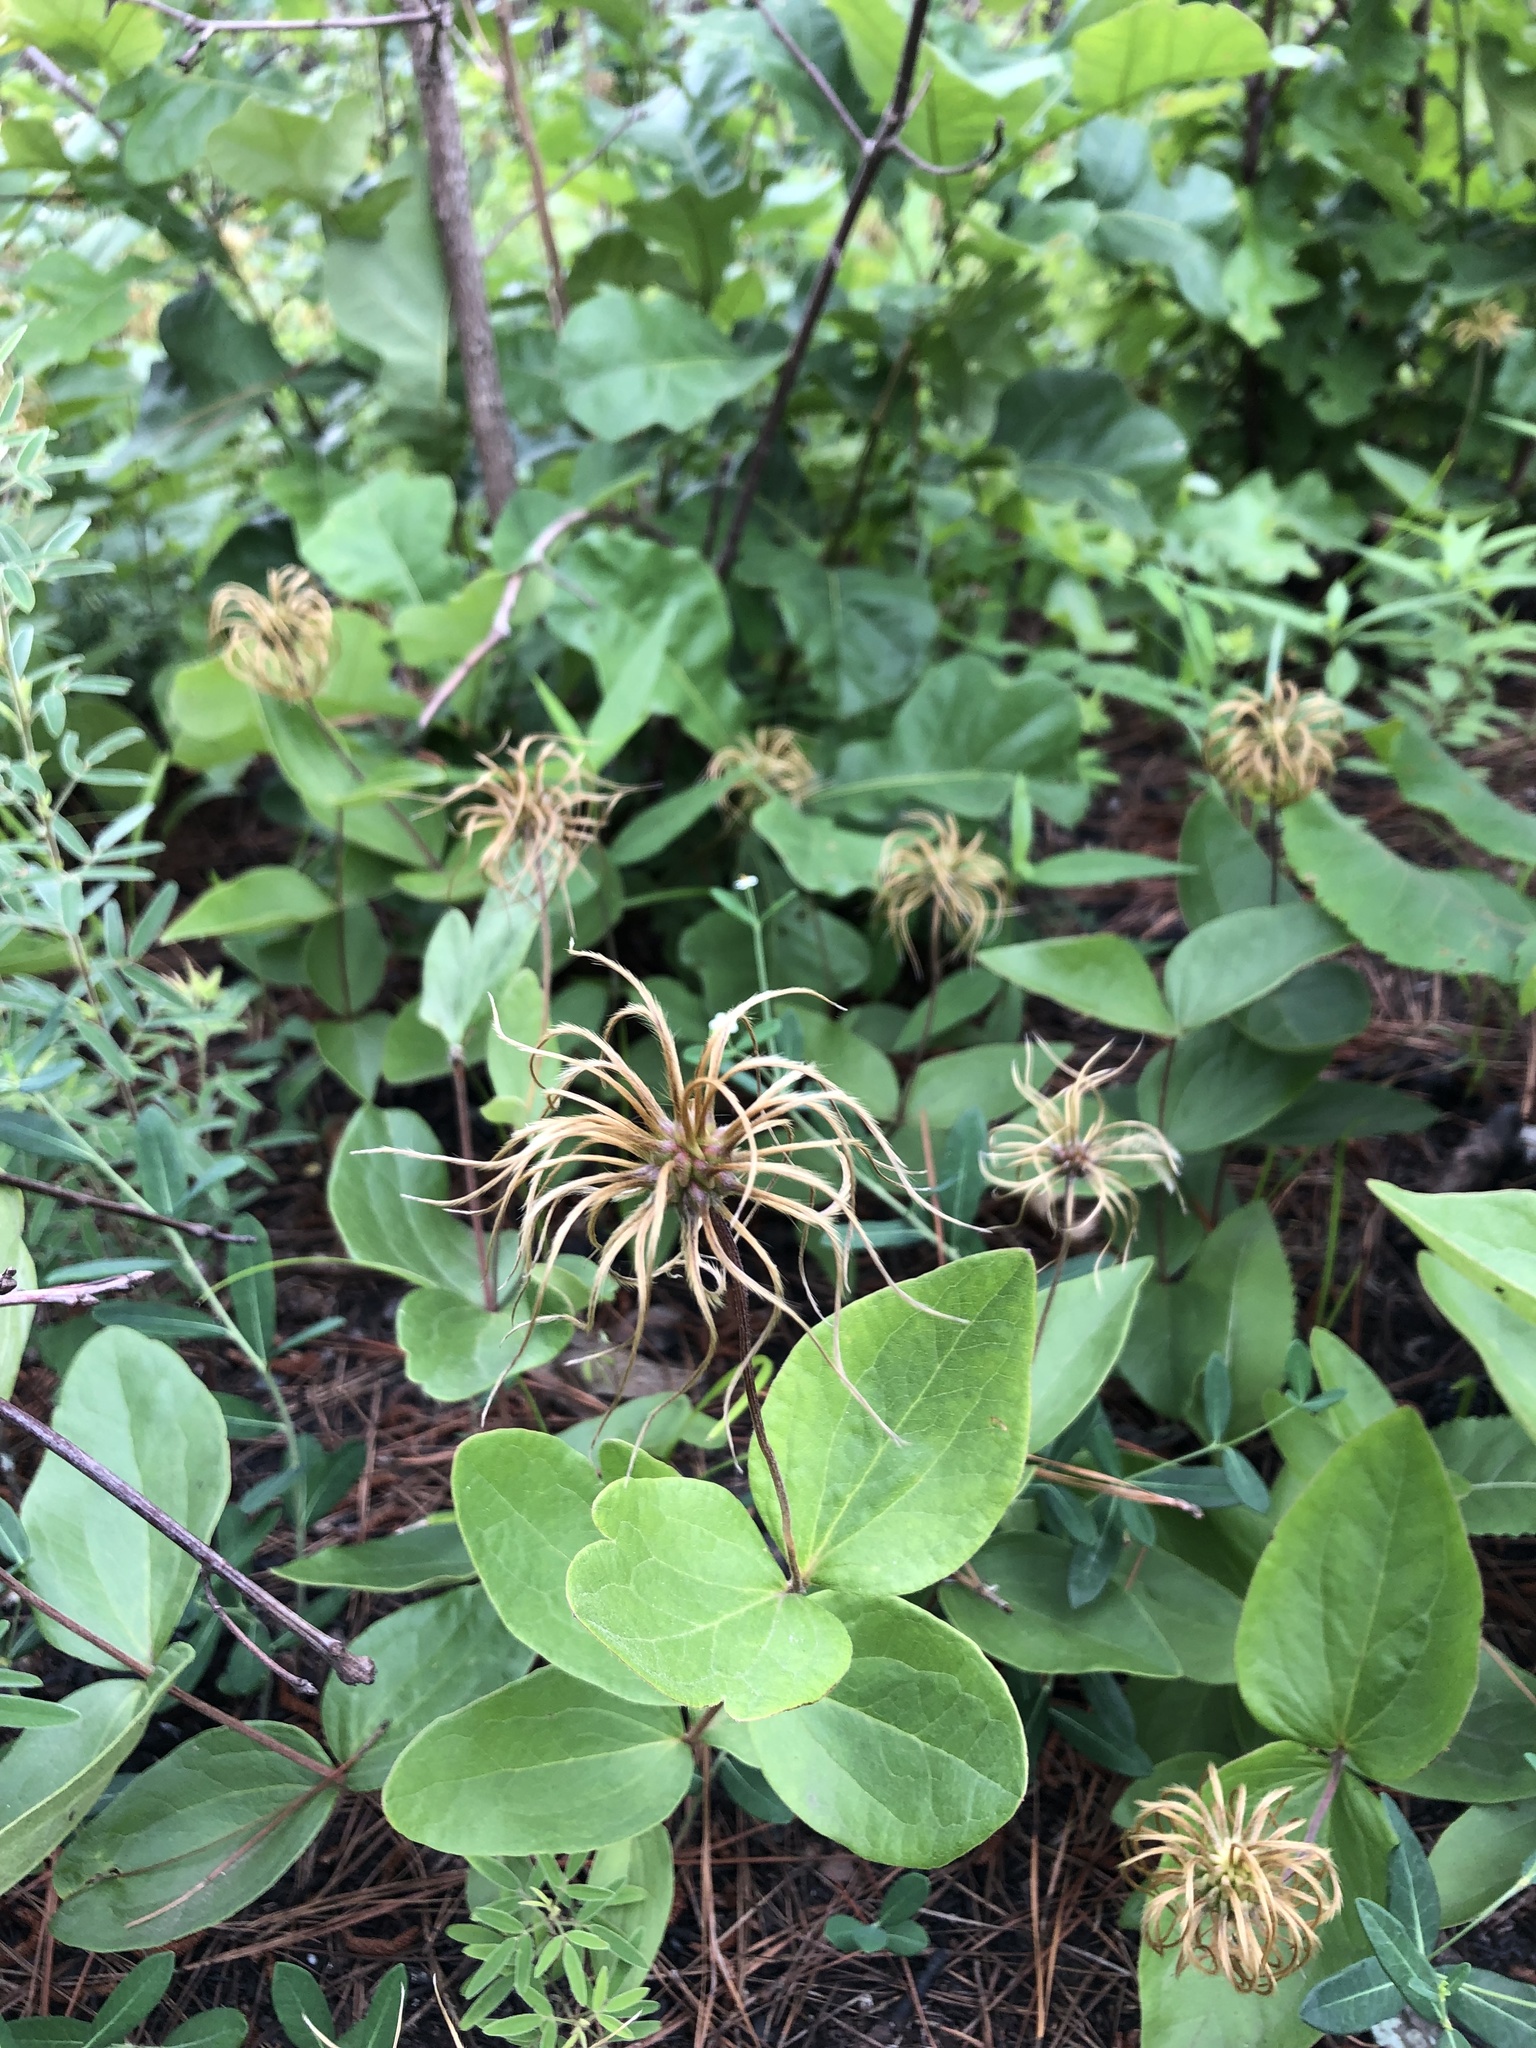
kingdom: Plantae
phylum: Tracheophyta
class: Magnoliopsida
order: Ranunculales
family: Ranunculaceae
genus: Clematis
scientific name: Clematis ochroleuca
